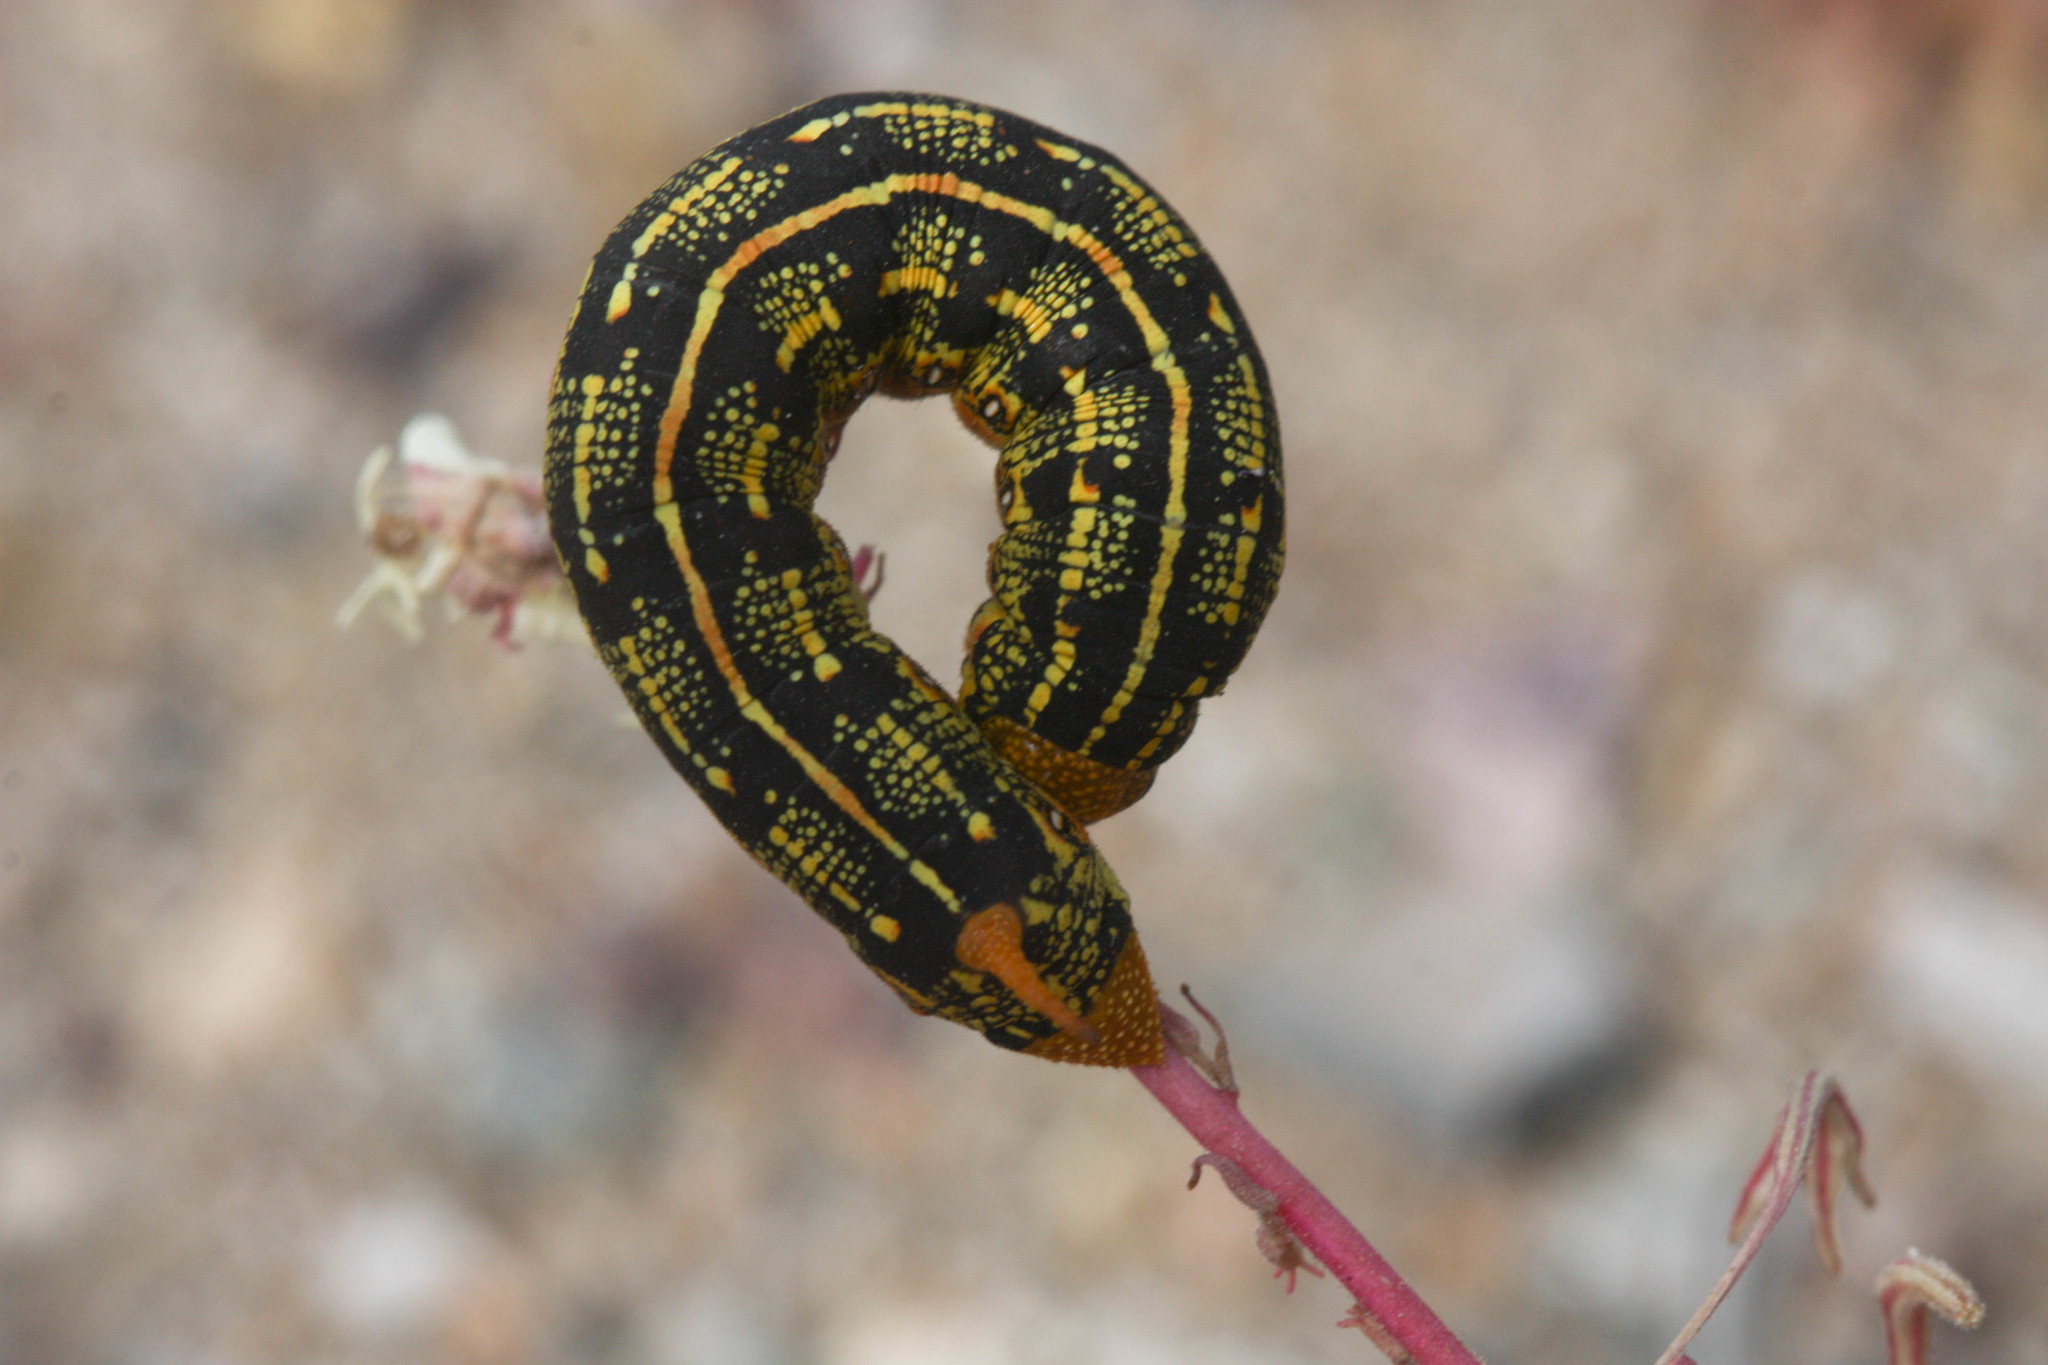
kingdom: Animalia
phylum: Arthropoda
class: Insecta
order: Lepidoptera
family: Sphingidae
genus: Hyles
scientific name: Hyles lineata
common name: White-lined sphinx
